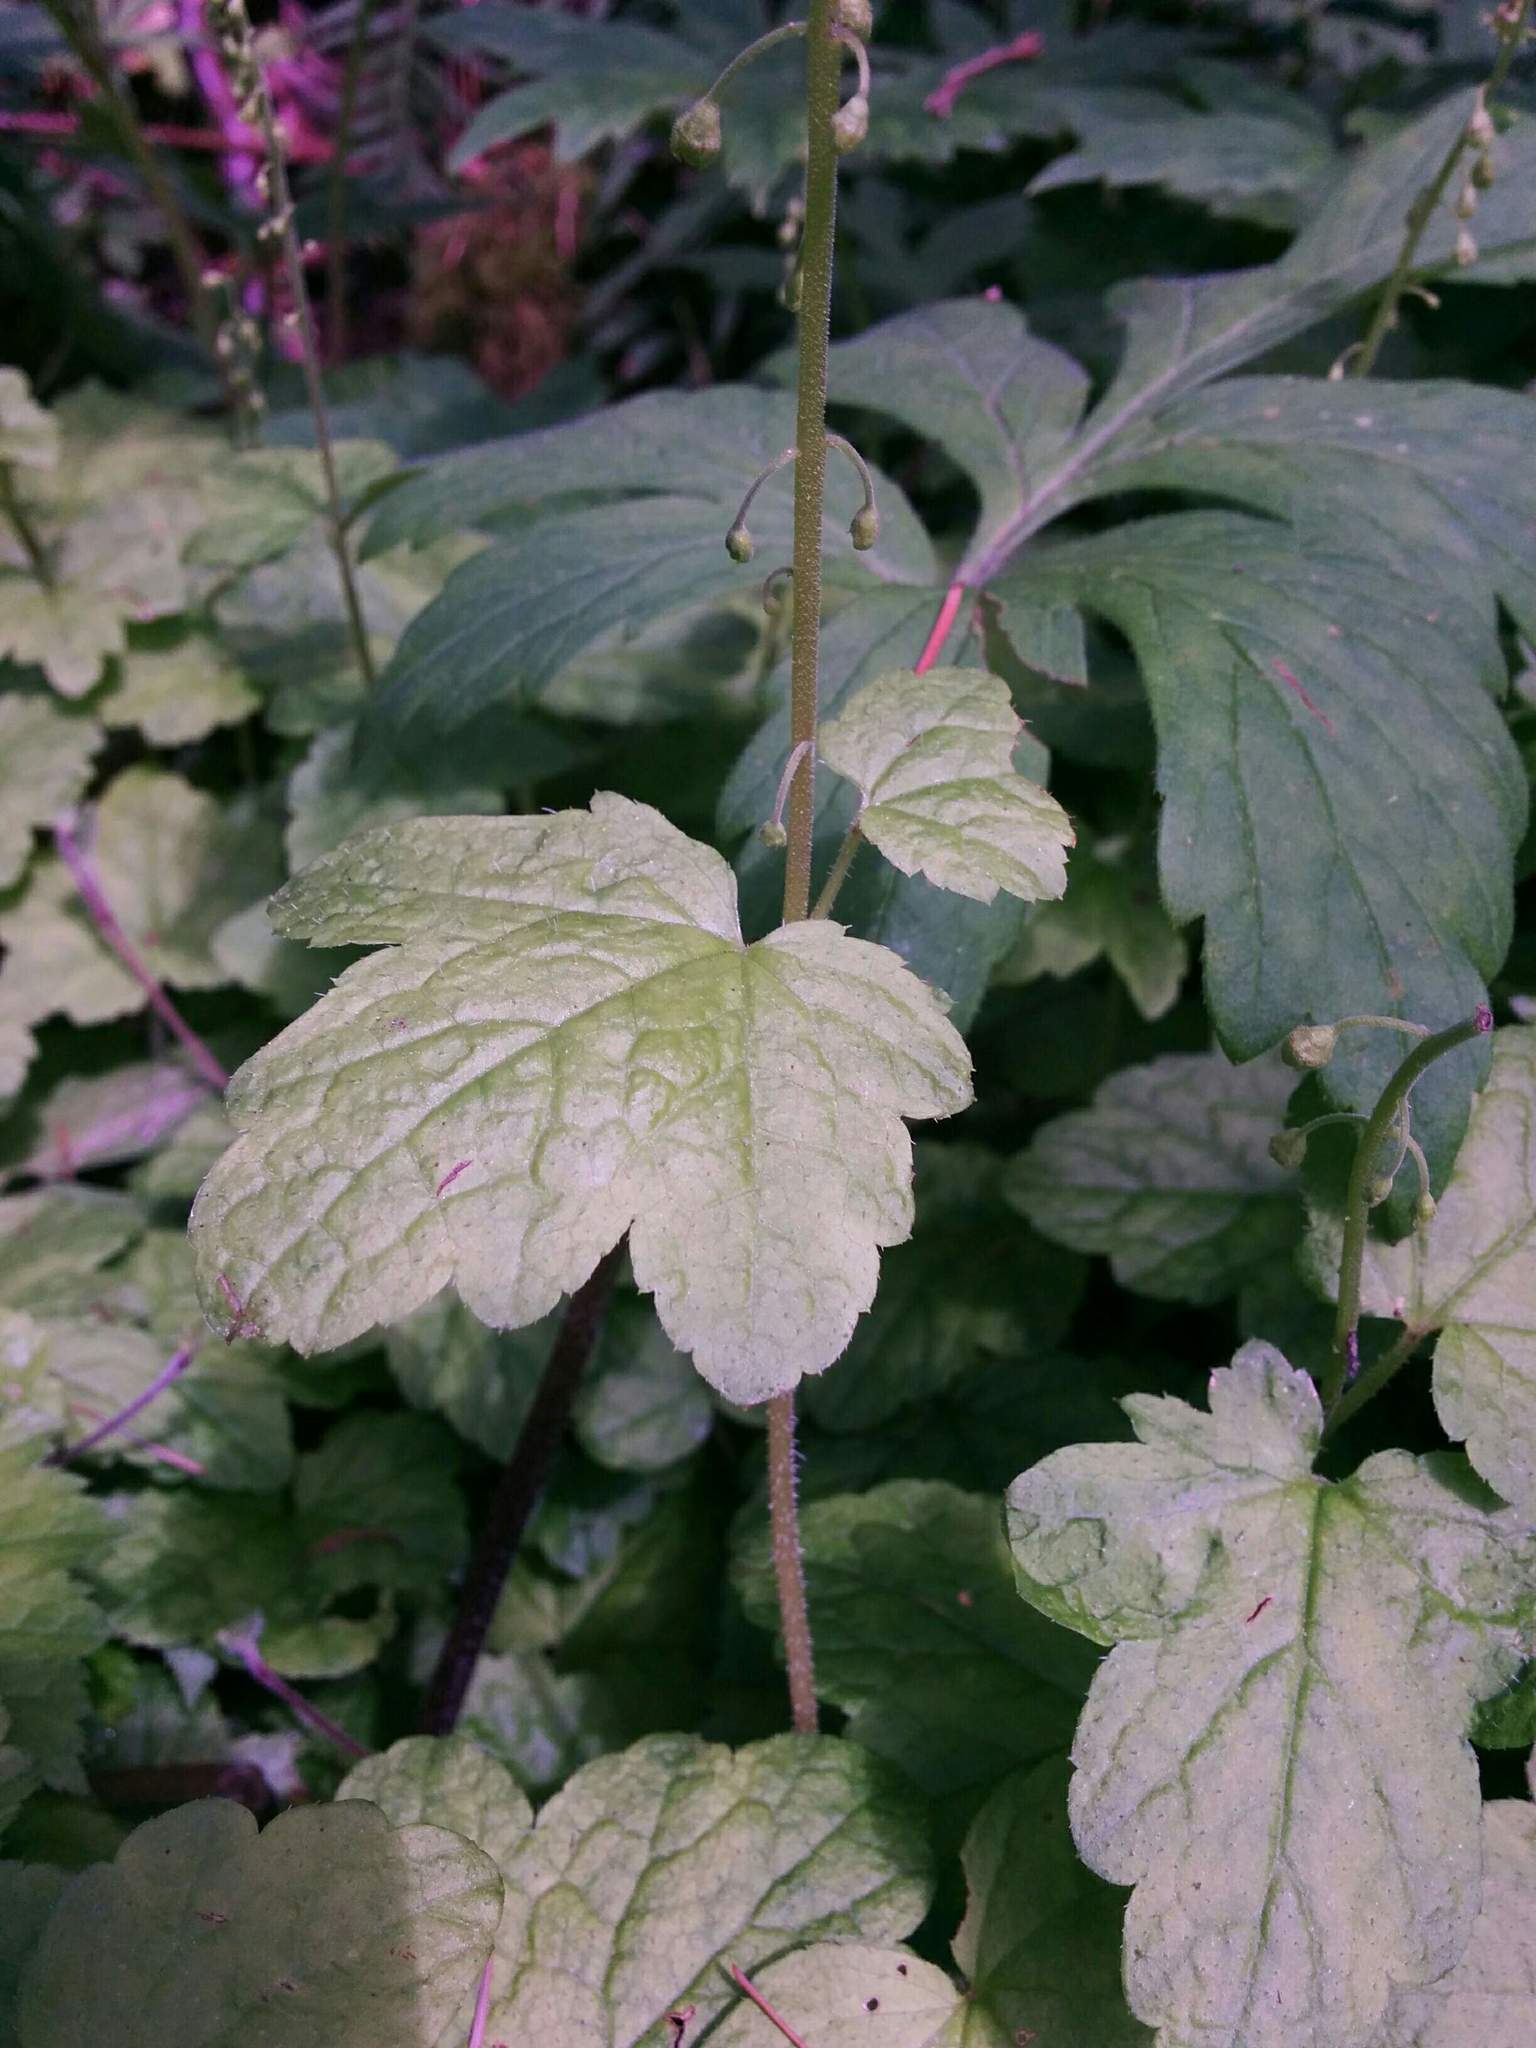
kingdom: Plantae
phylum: Tracheophyta
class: Magnoliopsida
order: Saxifragales
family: Saxifragaceae
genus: Mitellastra
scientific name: Mitellastra caulescens
